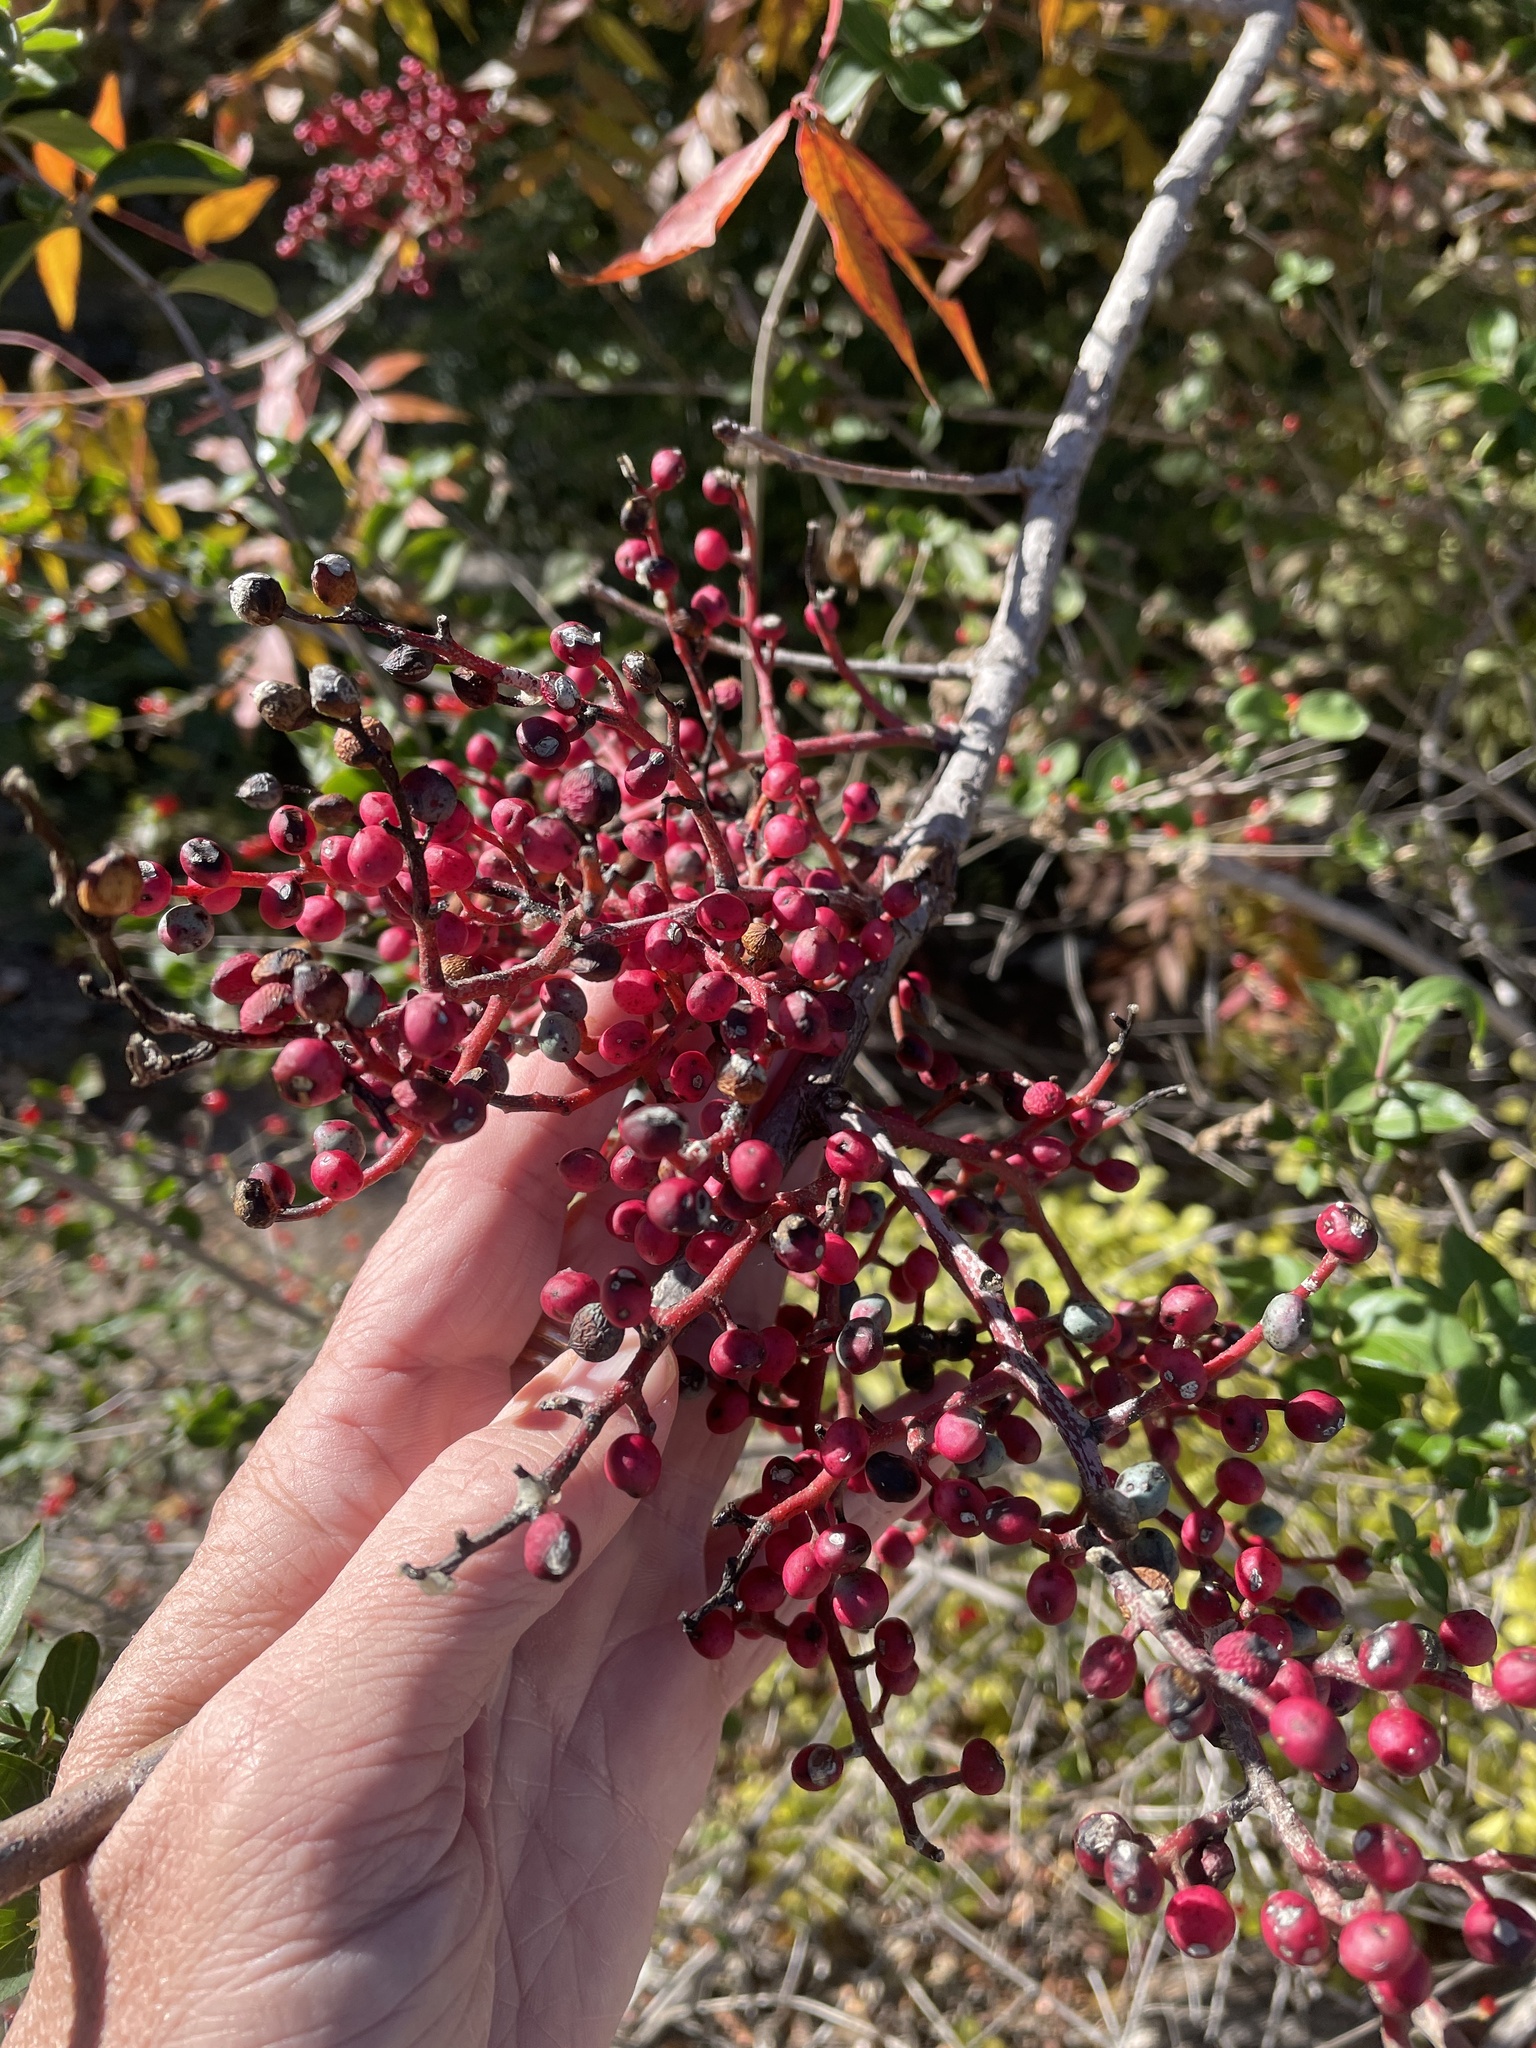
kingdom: Plantae
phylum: Tracheophyta
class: Magnoliopsida
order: Sapindales
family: Anacardiaceae
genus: Pistacia
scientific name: Pistacia chinensis
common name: Chinese pistache
